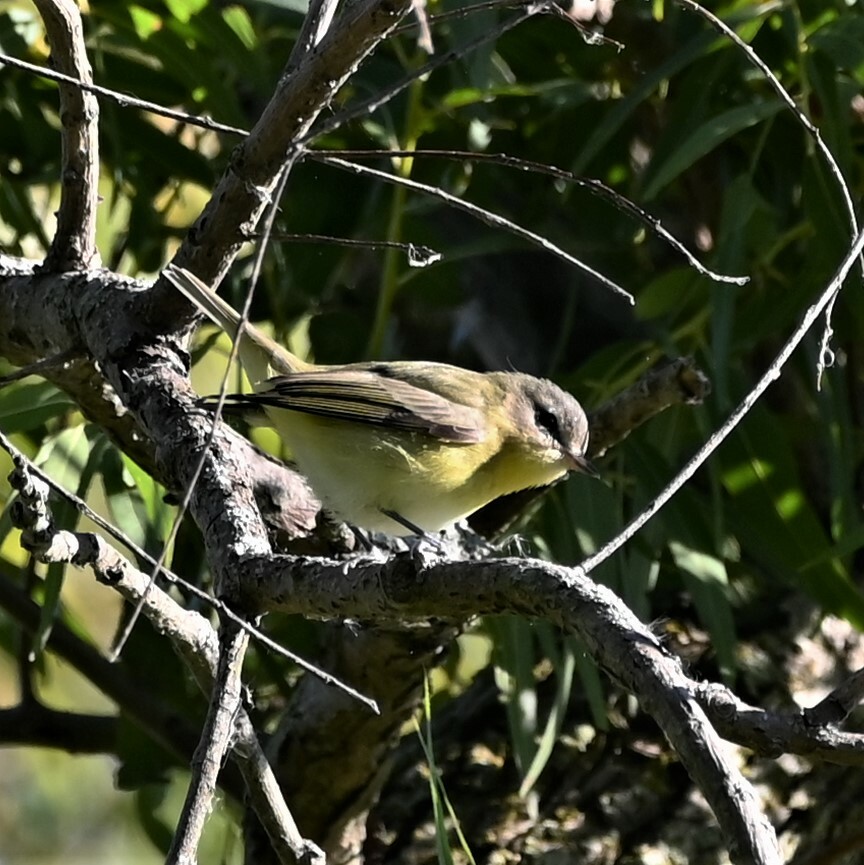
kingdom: Animalia
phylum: Chordata
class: Aves
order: Passeriformes
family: Vireonidae
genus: Vireo
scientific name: Vireo philadelphicus
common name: Philadelphia vireo
